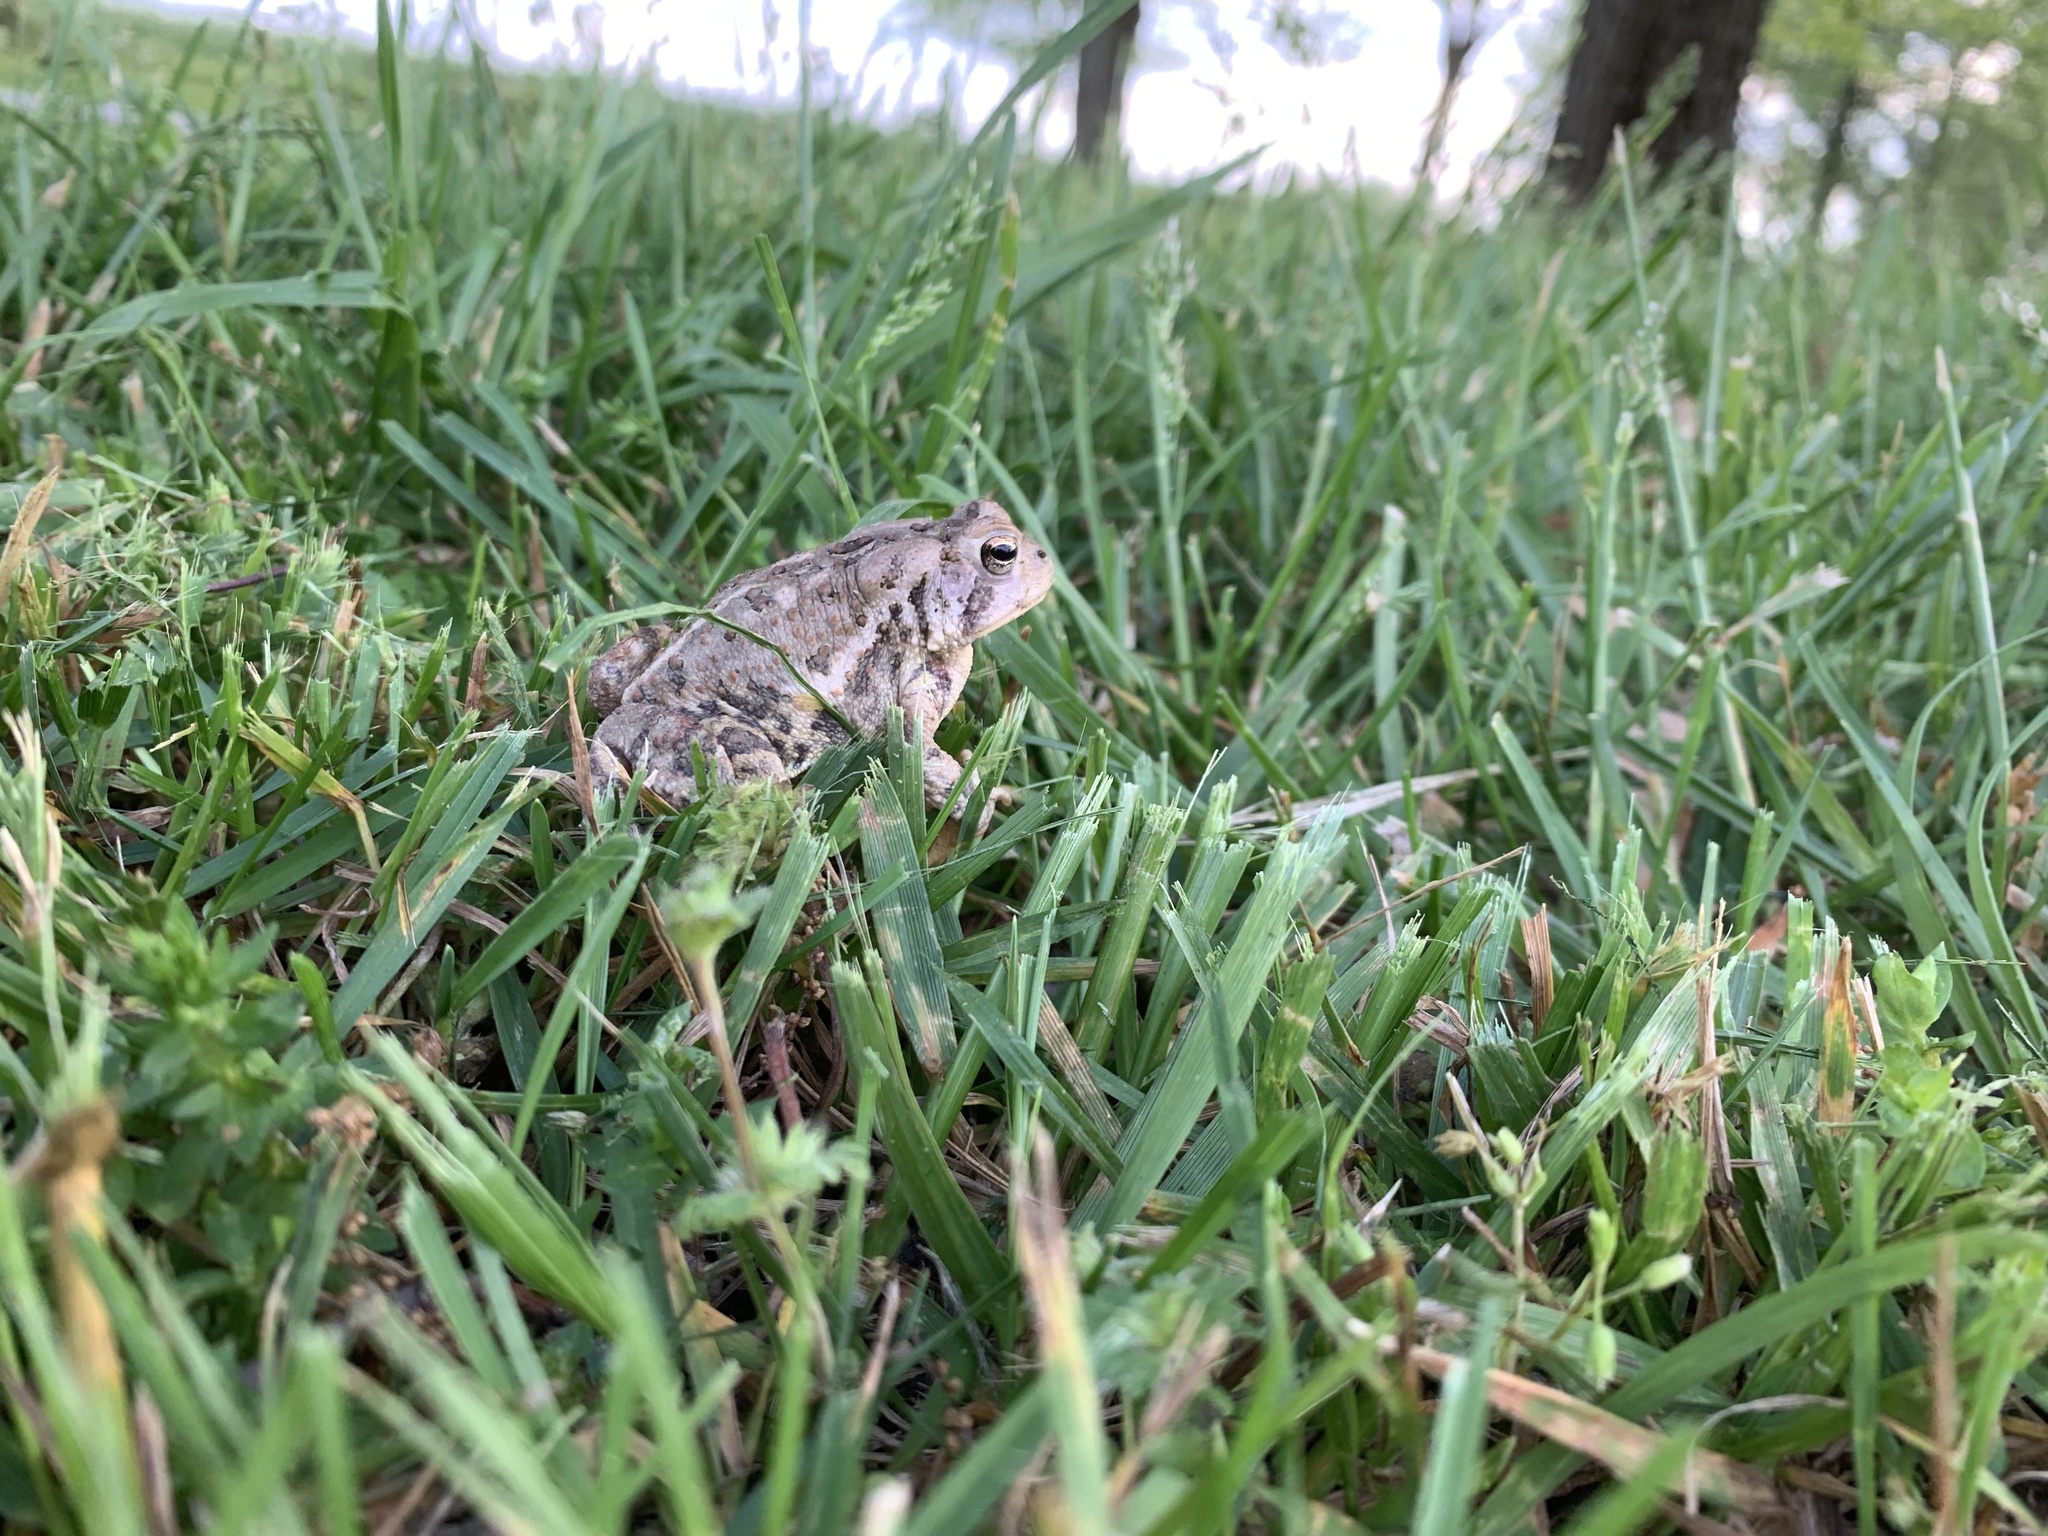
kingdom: Animalia
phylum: Chordata
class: Amphibia
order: Anura
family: Bufonidae
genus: Anaxyrus
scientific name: Anaxyrus fowleri
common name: Fowler's toad
